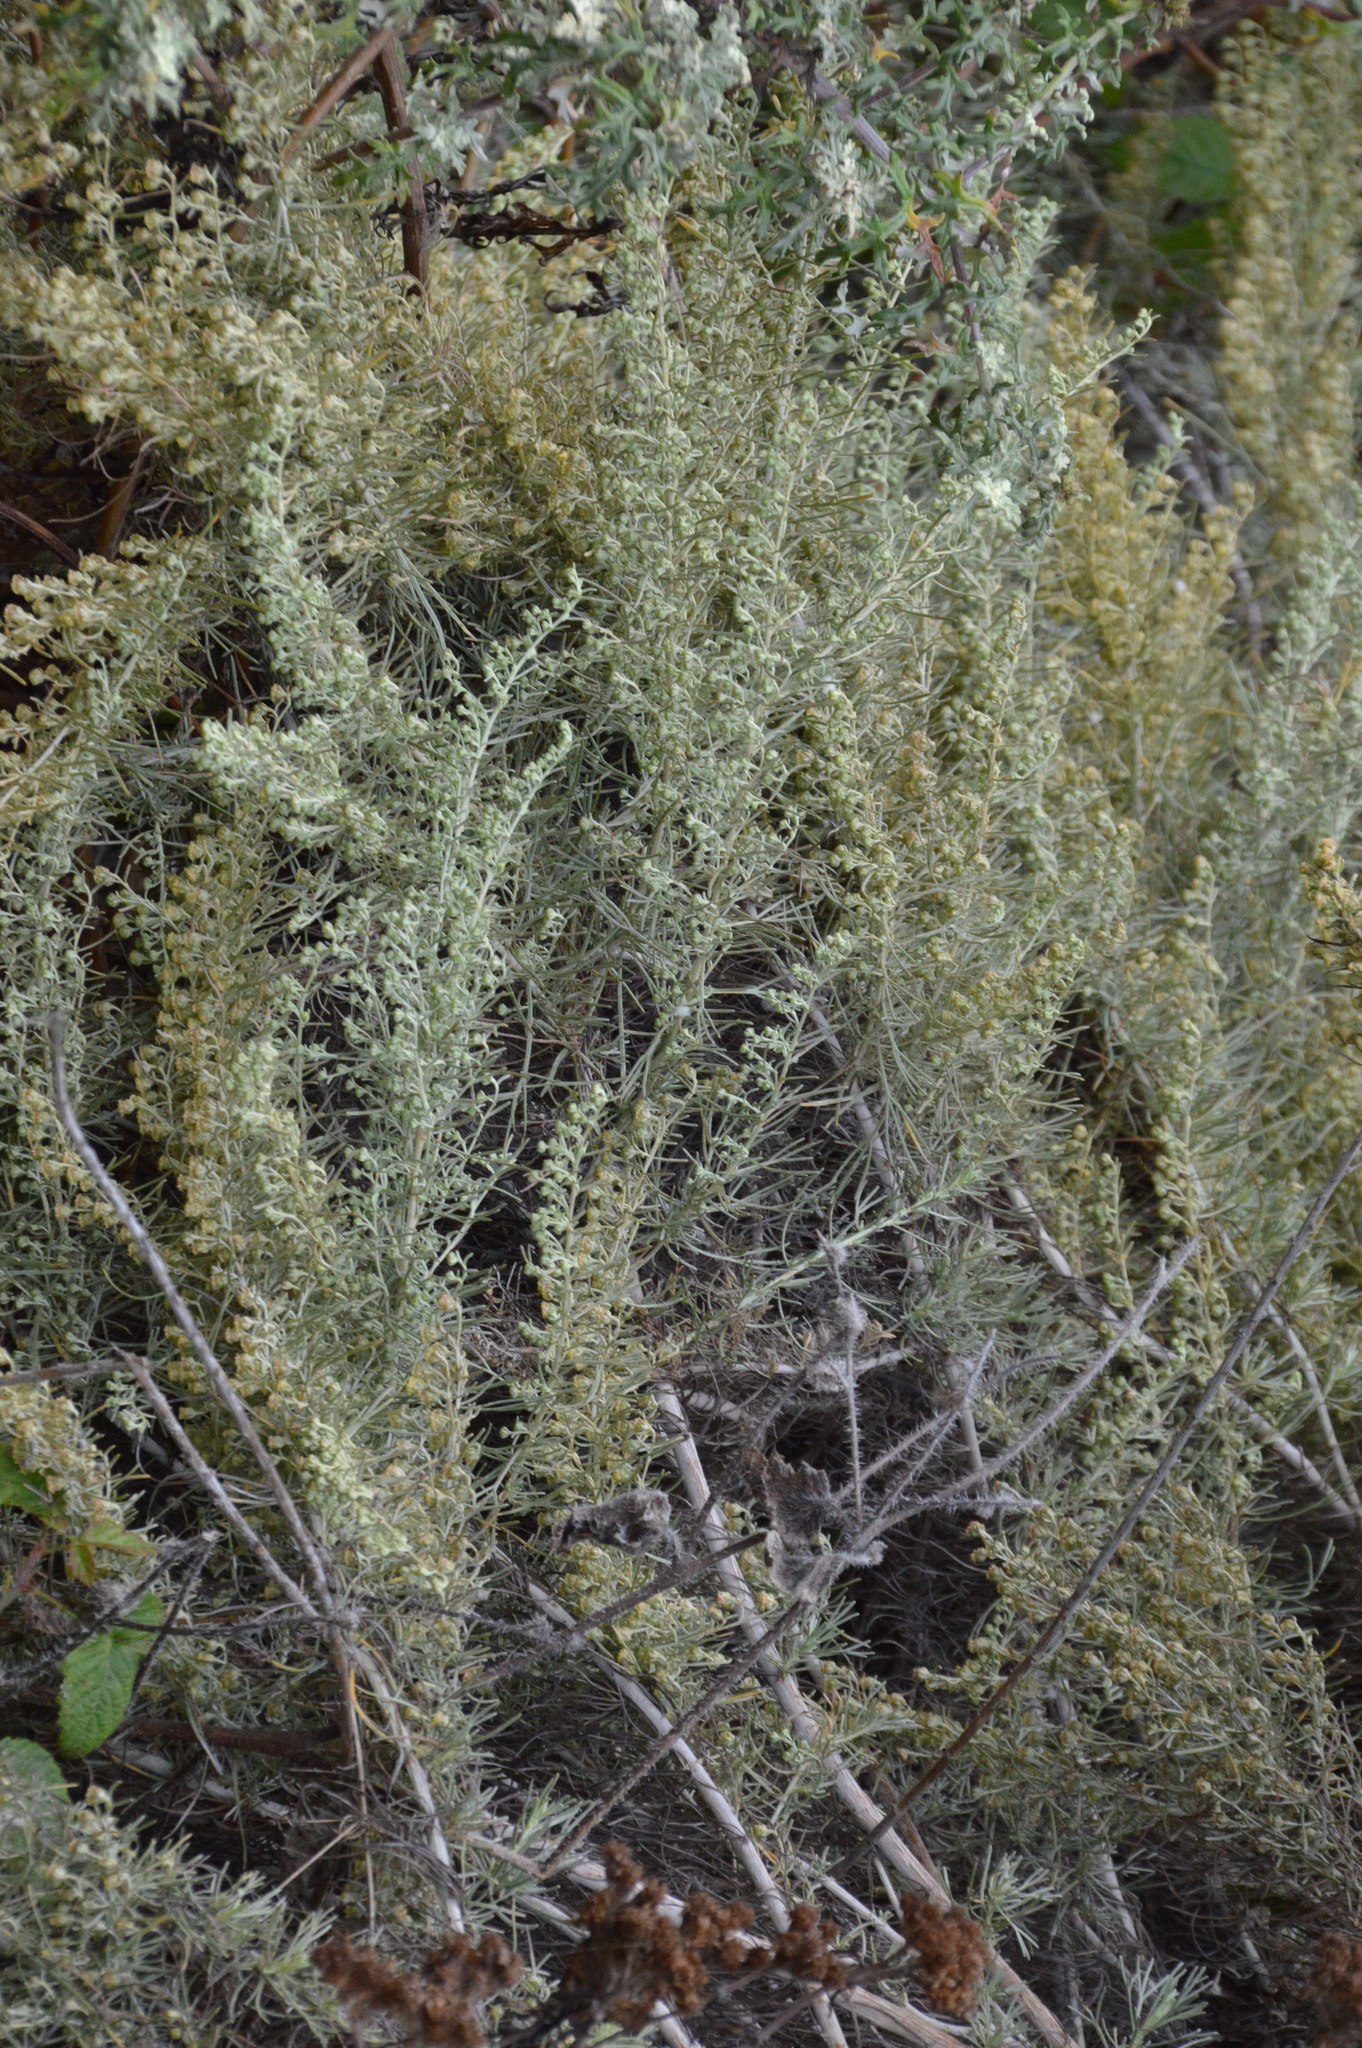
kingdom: Plantae
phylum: Tracheophyta
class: Magnoliopsida
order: Asterales
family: Asteraceae
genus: Artemisia
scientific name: Artemisia californica
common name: California sagebrush
